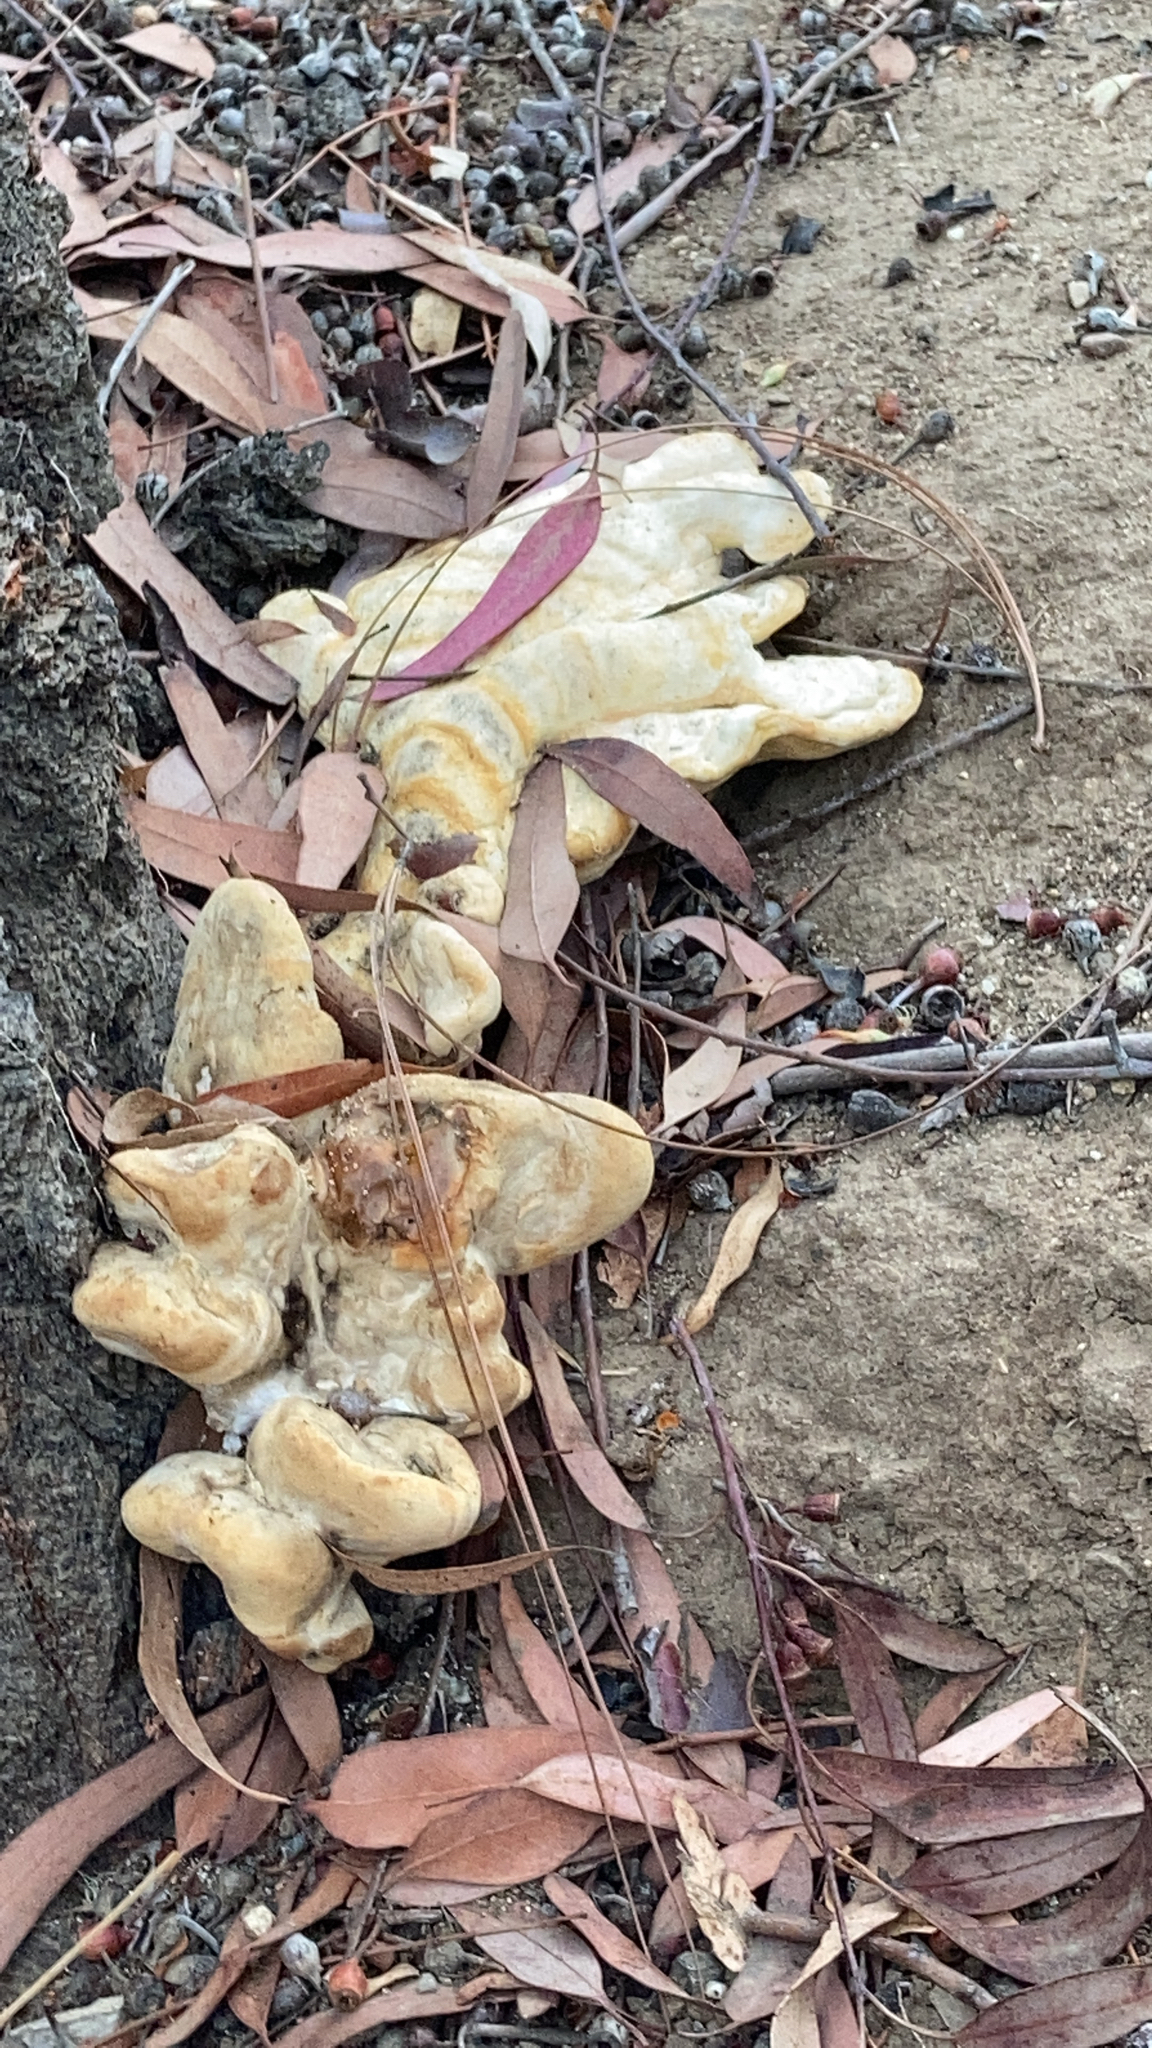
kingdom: Fungi
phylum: Basidiomycota
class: Agaricomycetes
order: Polyporales
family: Laetiporaceae
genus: Laetiporus
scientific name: Laetiporus gilbertsonii
